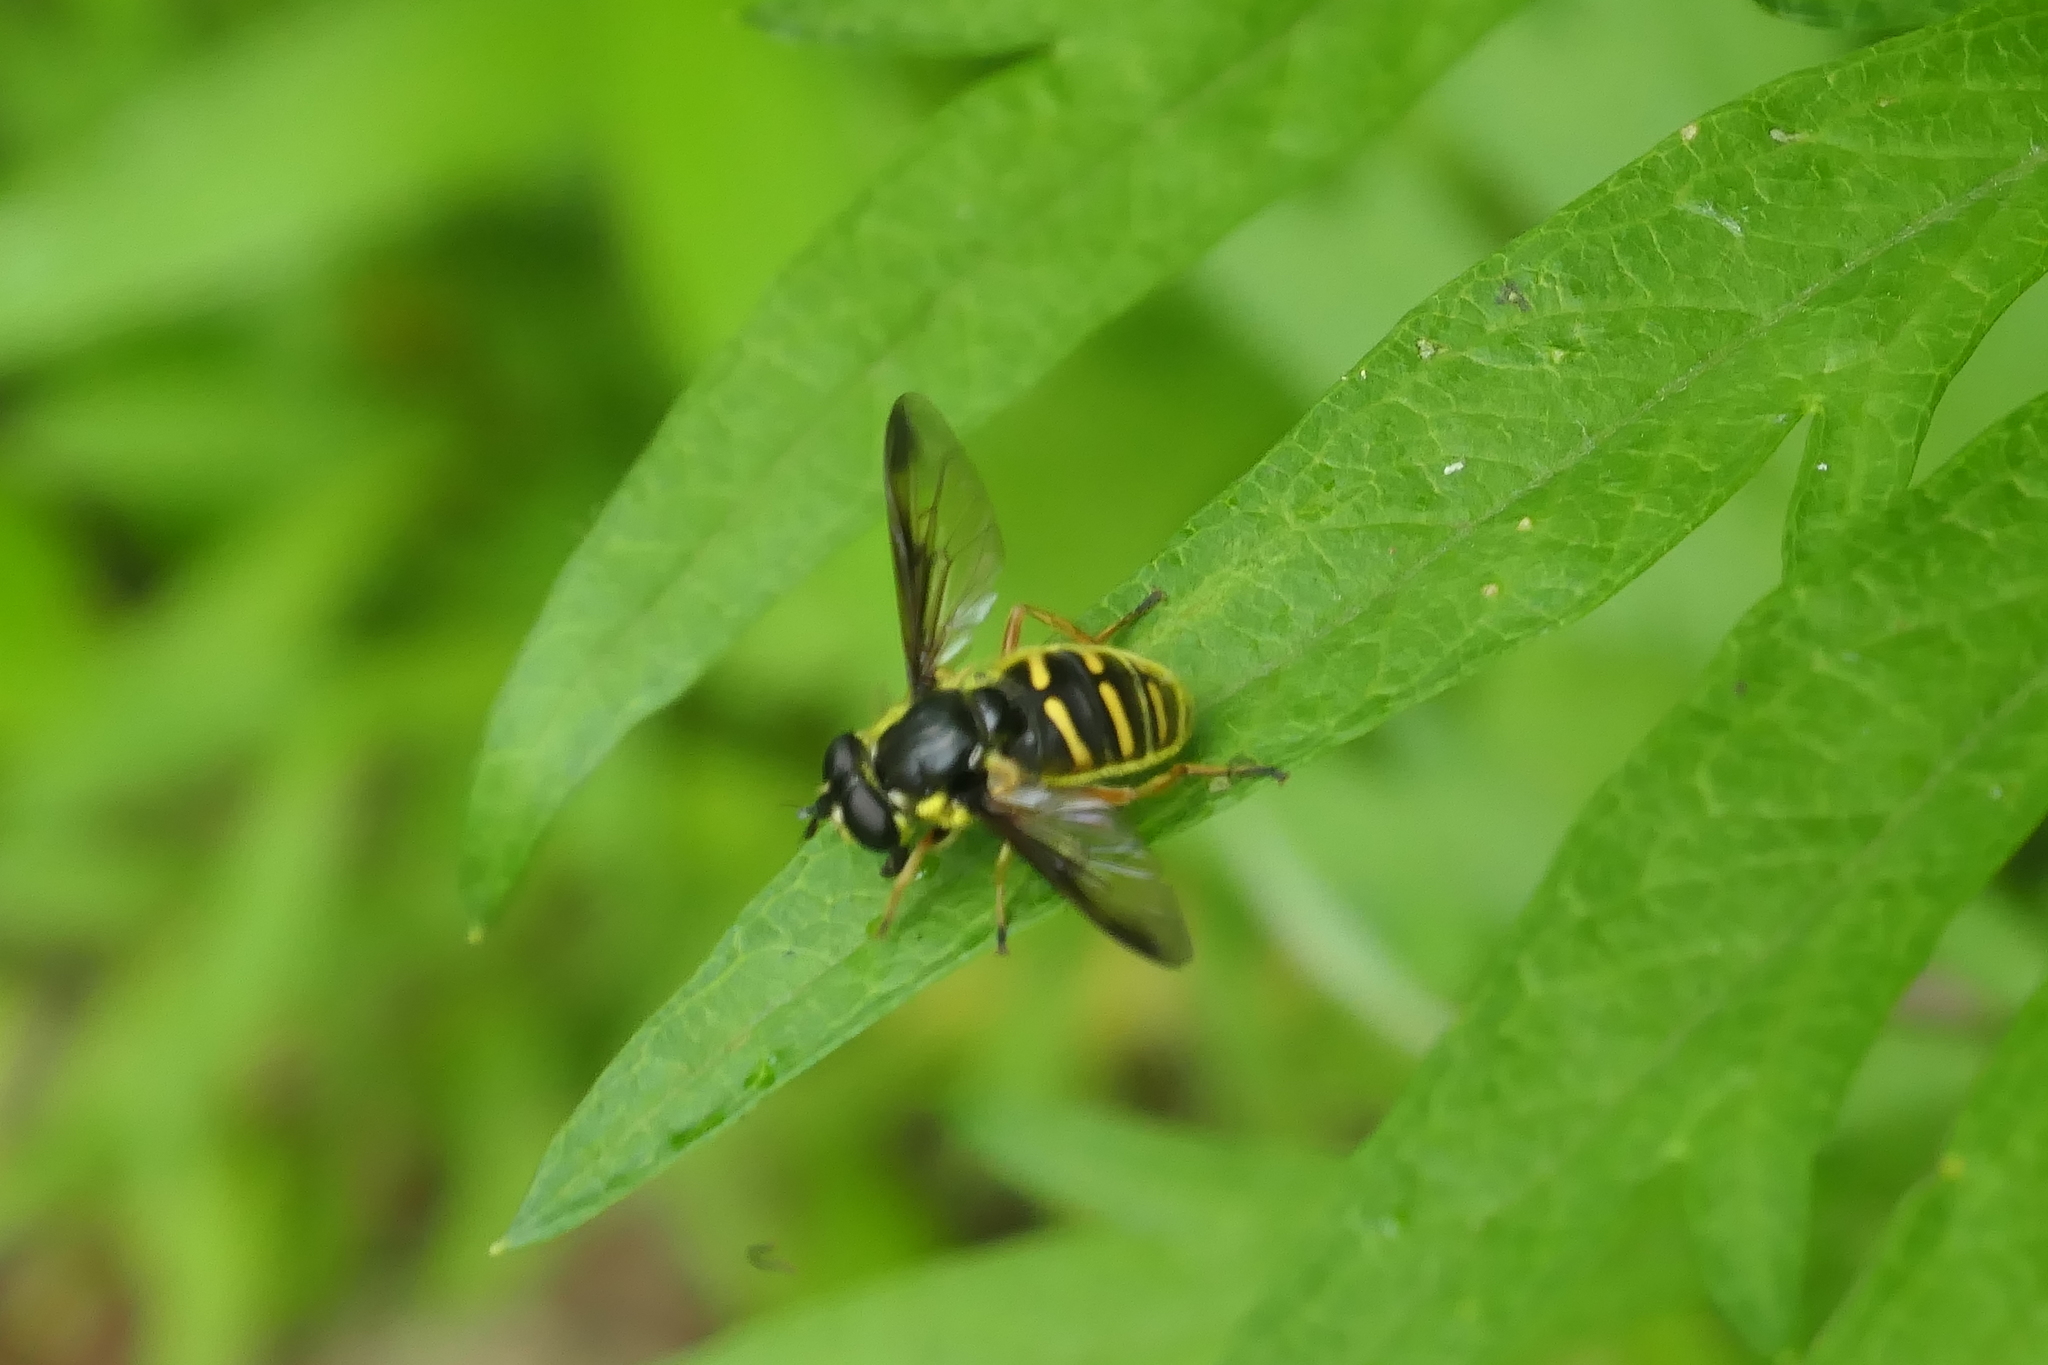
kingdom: Animalia
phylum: Arthropoda
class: Insecta
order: Diptera
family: Syrphidae
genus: Sericomyia
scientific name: Sericomyia chrysotoxoides
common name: Oblique-banded pond fly
